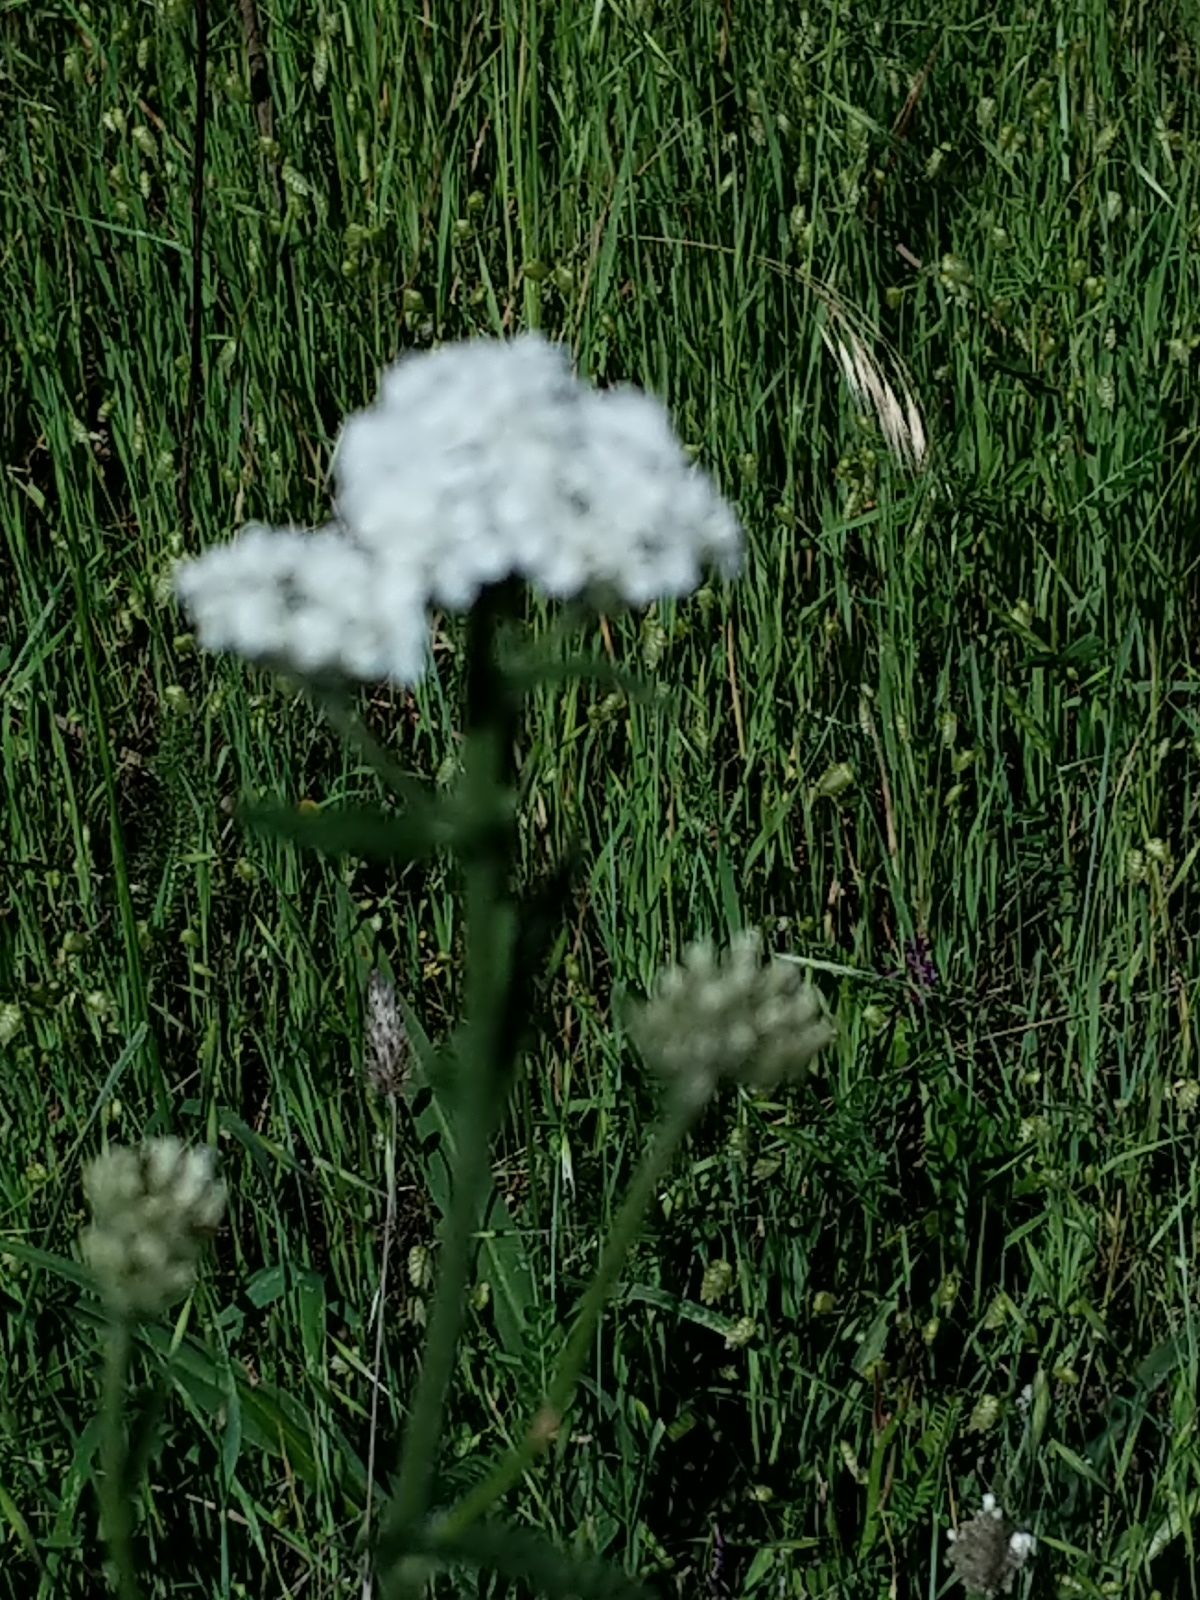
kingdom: Plantae
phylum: Tracheophyta
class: Magnoliopsida
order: Asterales
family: Asteraceae
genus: Achillea
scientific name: Achillea millefolium
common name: Yarrow
